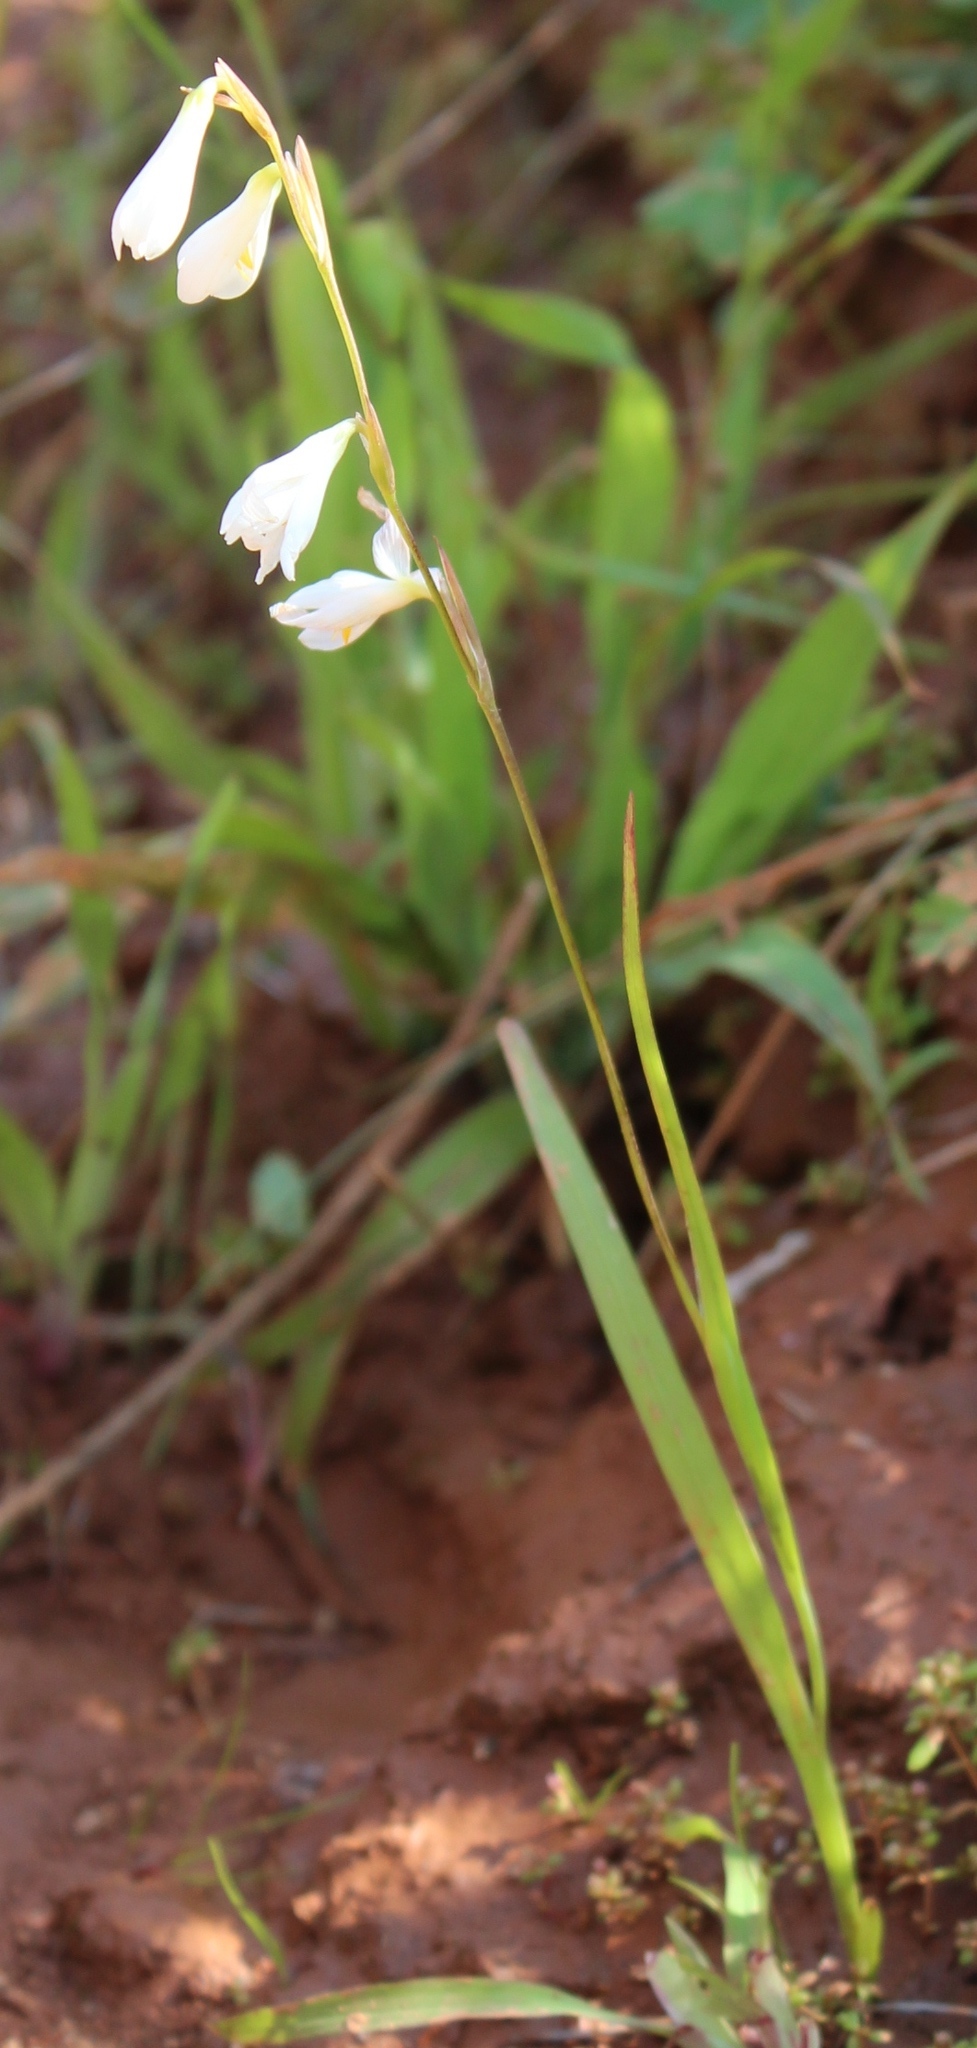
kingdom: Plantae
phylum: Tracheophyta
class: Liliopsida
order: Asparagales
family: Iridaceae
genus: Hesperantha
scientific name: Hesperantha bachmannii
